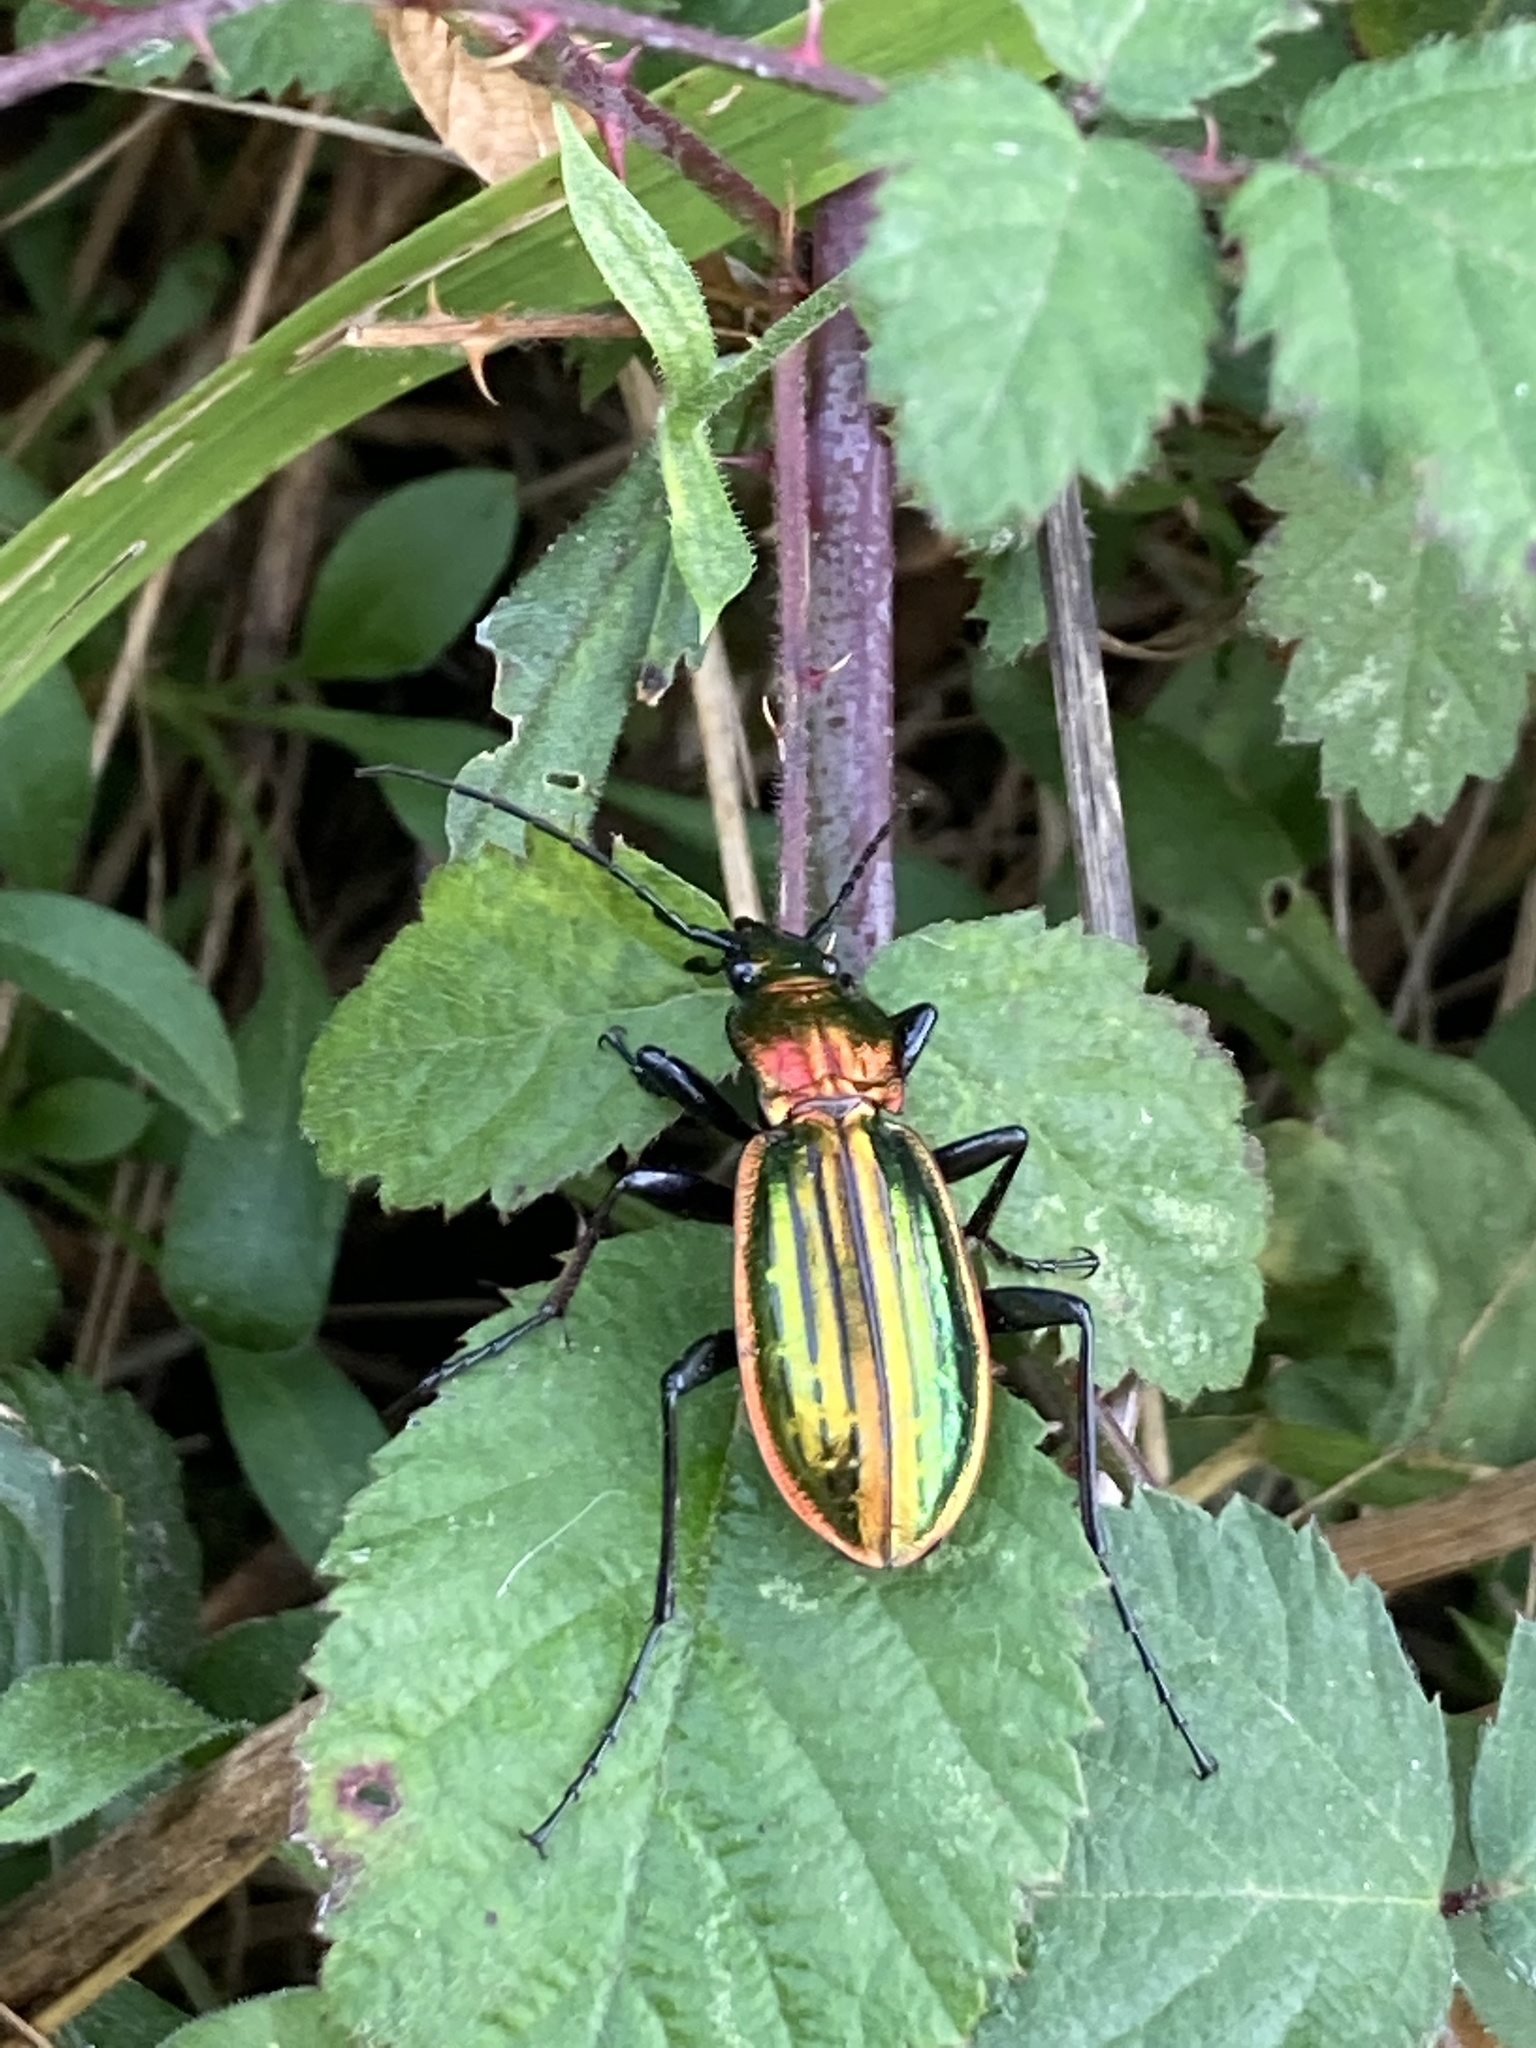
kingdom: Animalia
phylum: Arthropoda
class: Insecta
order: Coleoptera
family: Carabidae
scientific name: Carabidae
